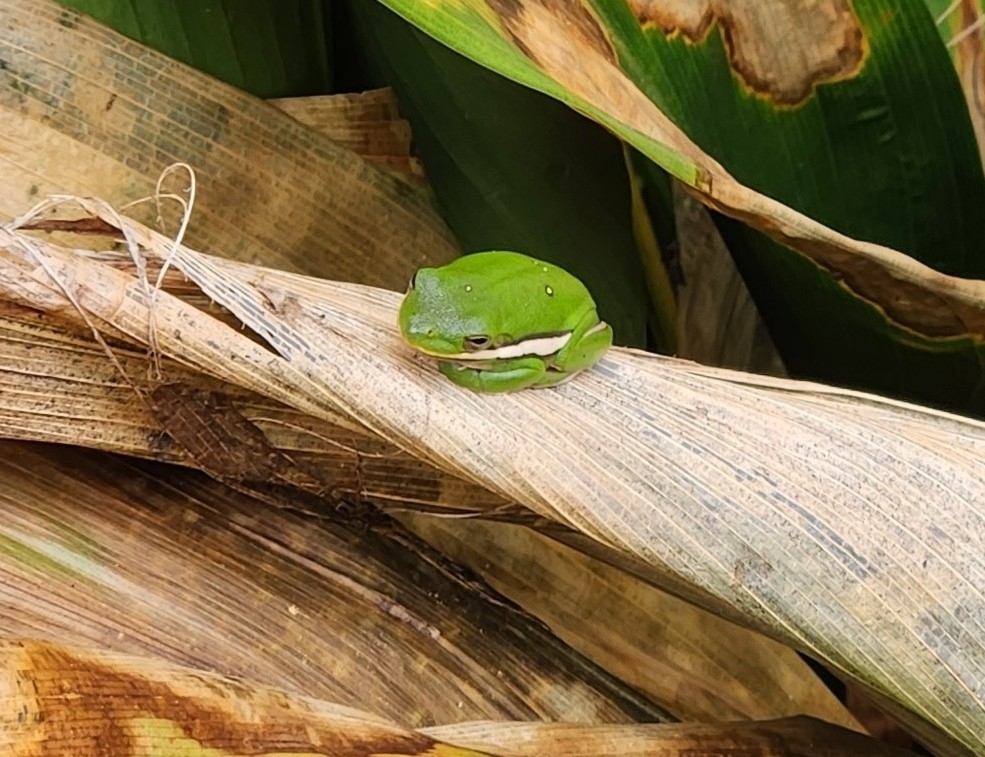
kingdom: Animalia
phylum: Chordata
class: Amphibia
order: Anura
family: Hylidae
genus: Dryophytes
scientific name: Dryophytes cinereus
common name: Green treefrog
